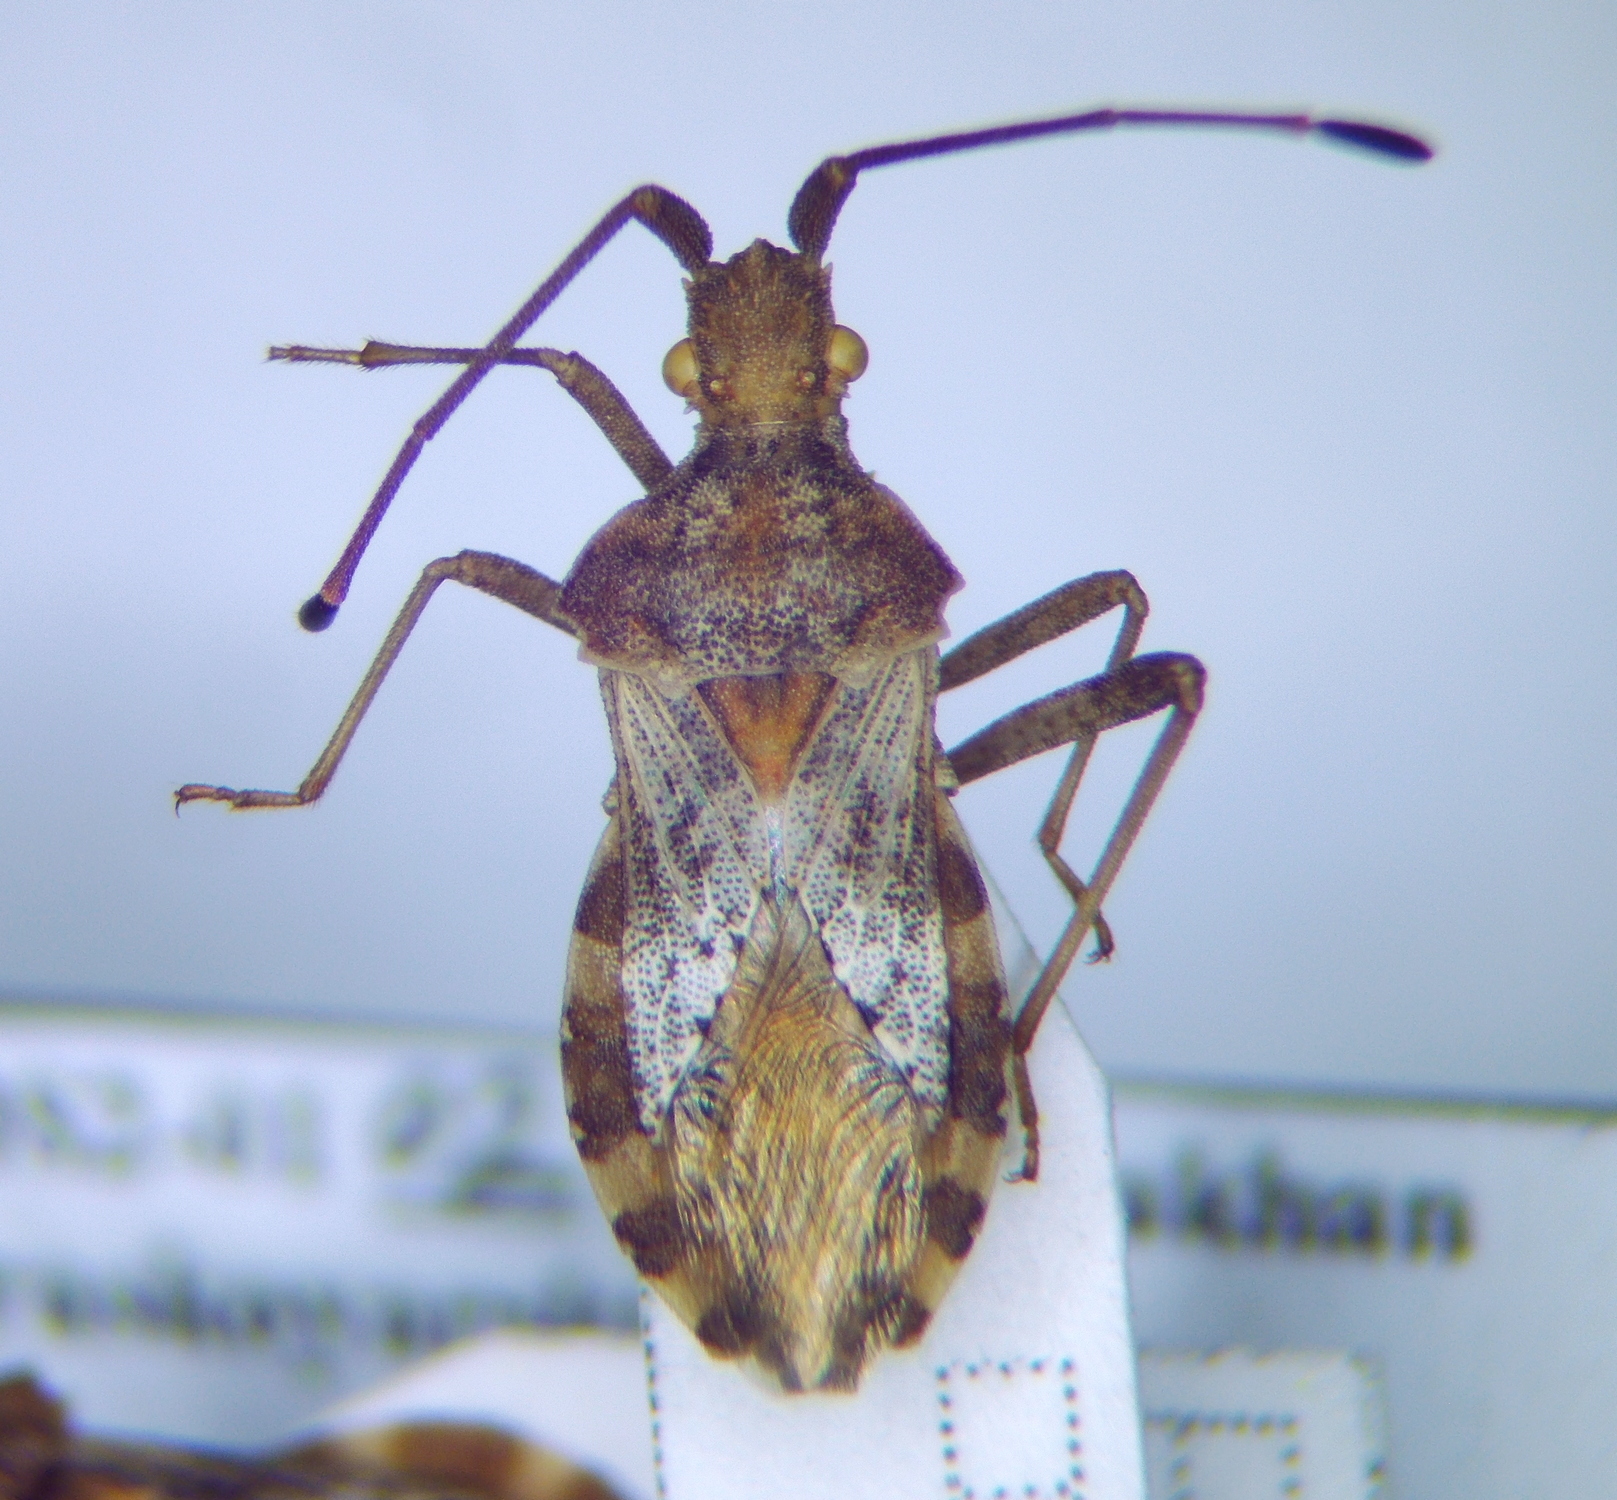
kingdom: Animalia
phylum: Arthropoda
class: Insecta
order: Hemiptera
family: Coreidae
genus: Centrocoris
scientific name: Centrocoris volxemi
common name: Leaf-footed bug
